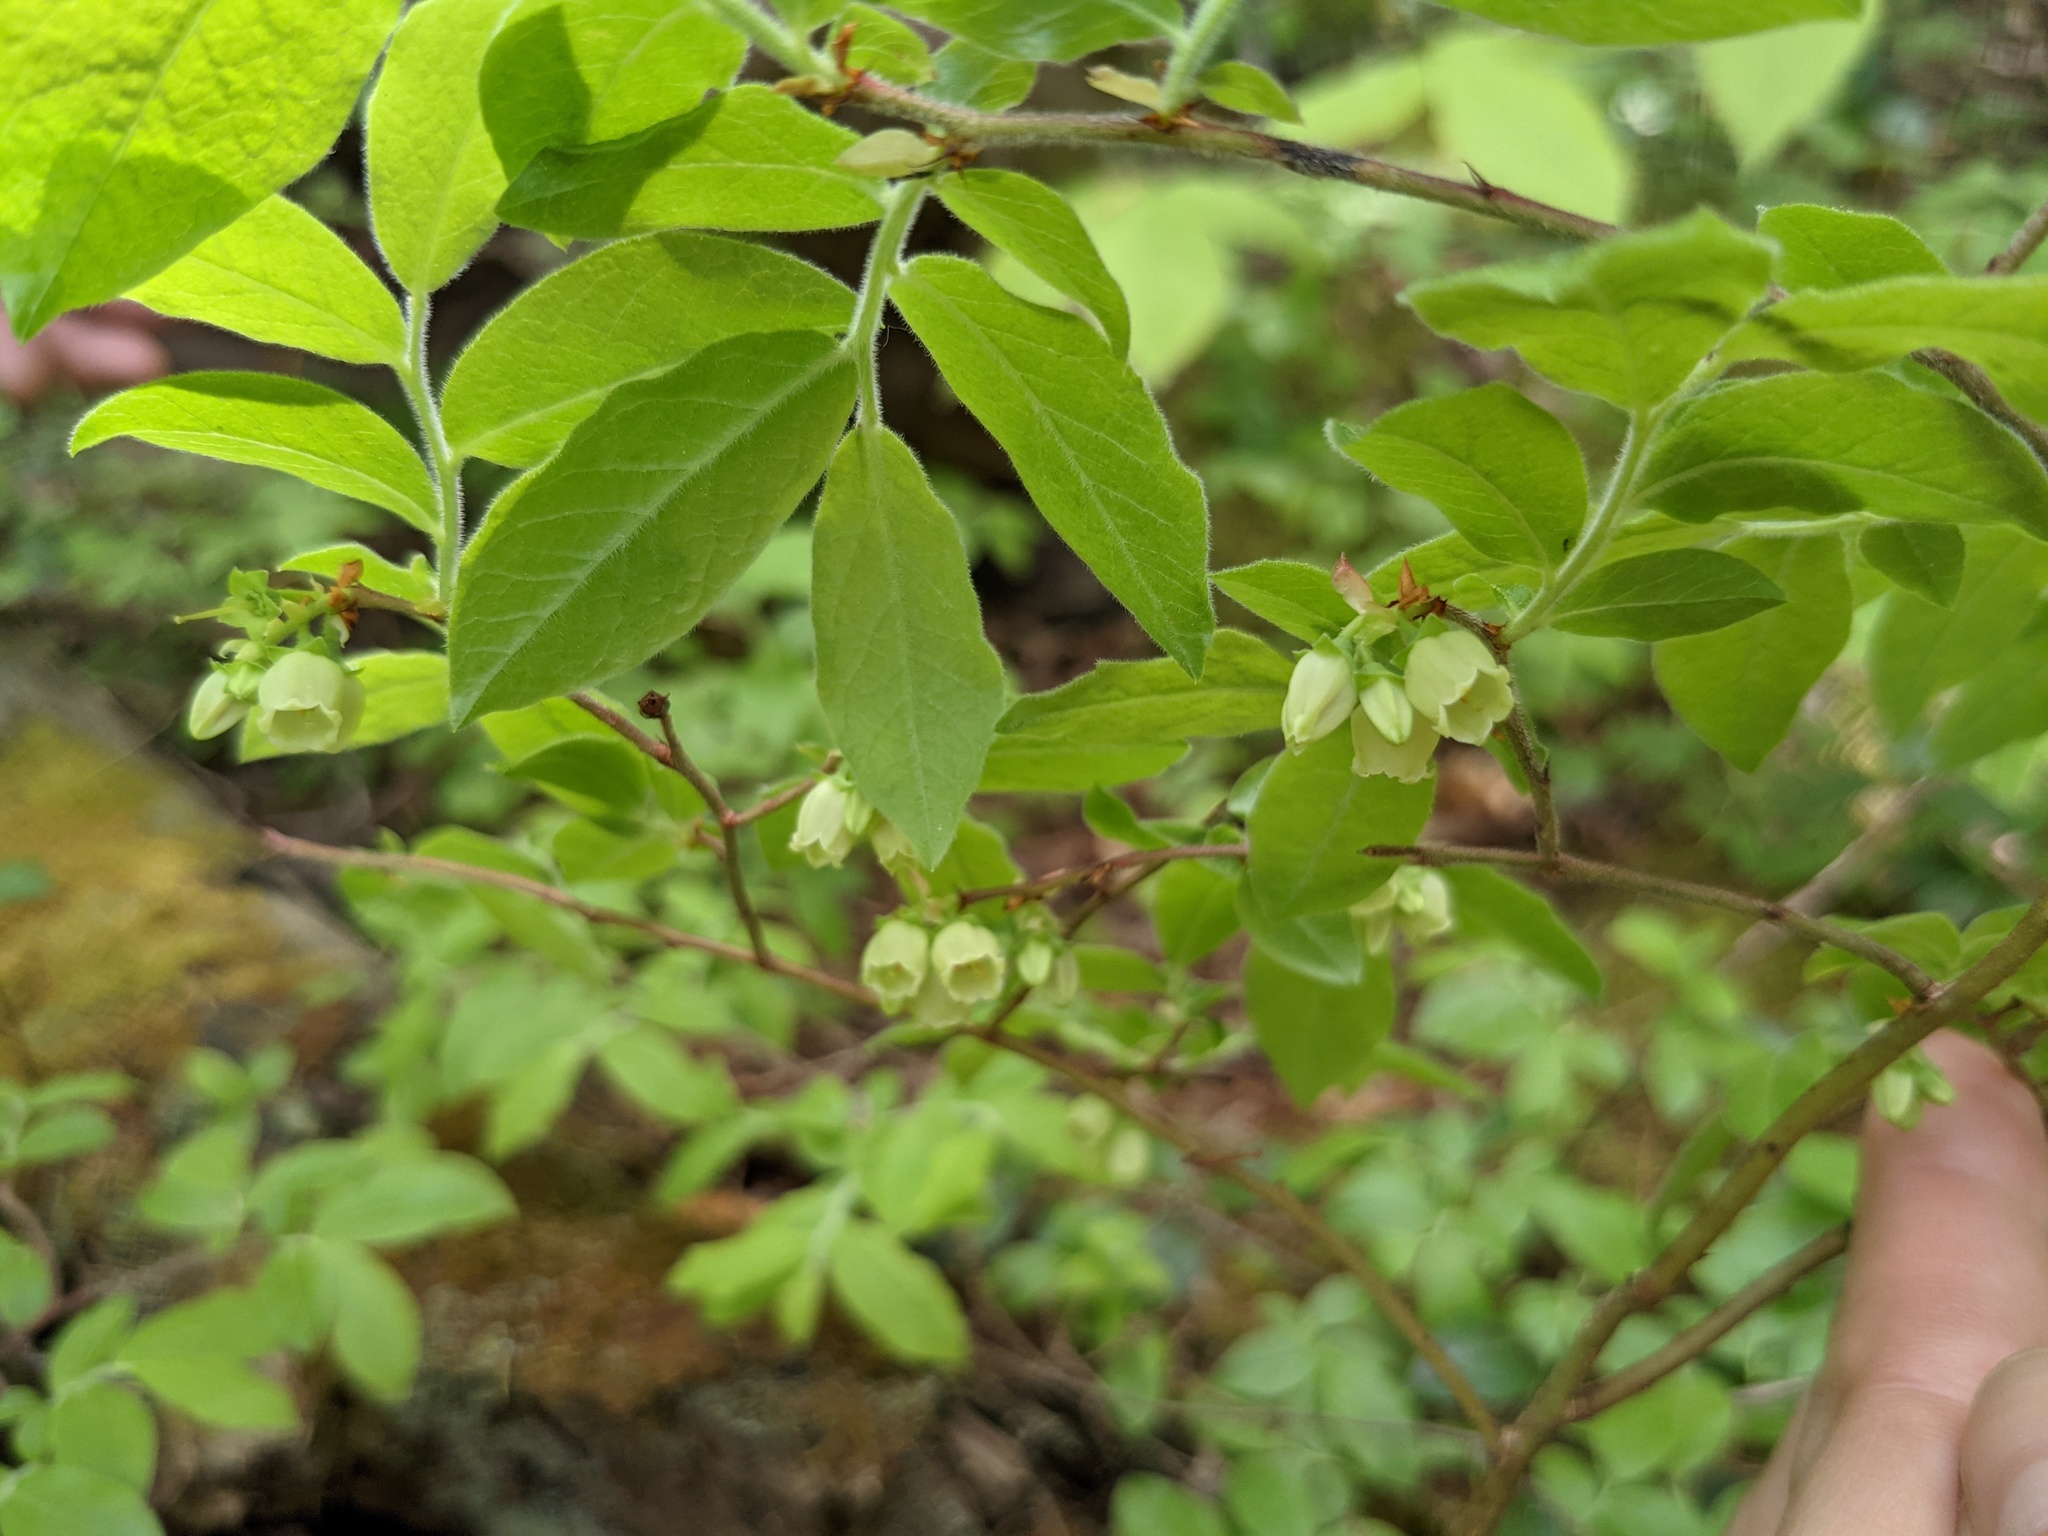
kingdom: Plantae
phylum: Tracheophyta
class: Magnoliopsida
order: Ericales
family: Ericaceae
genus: Vaccinium
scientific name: Vaccinium myrtilloides
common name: Canada blueberry
